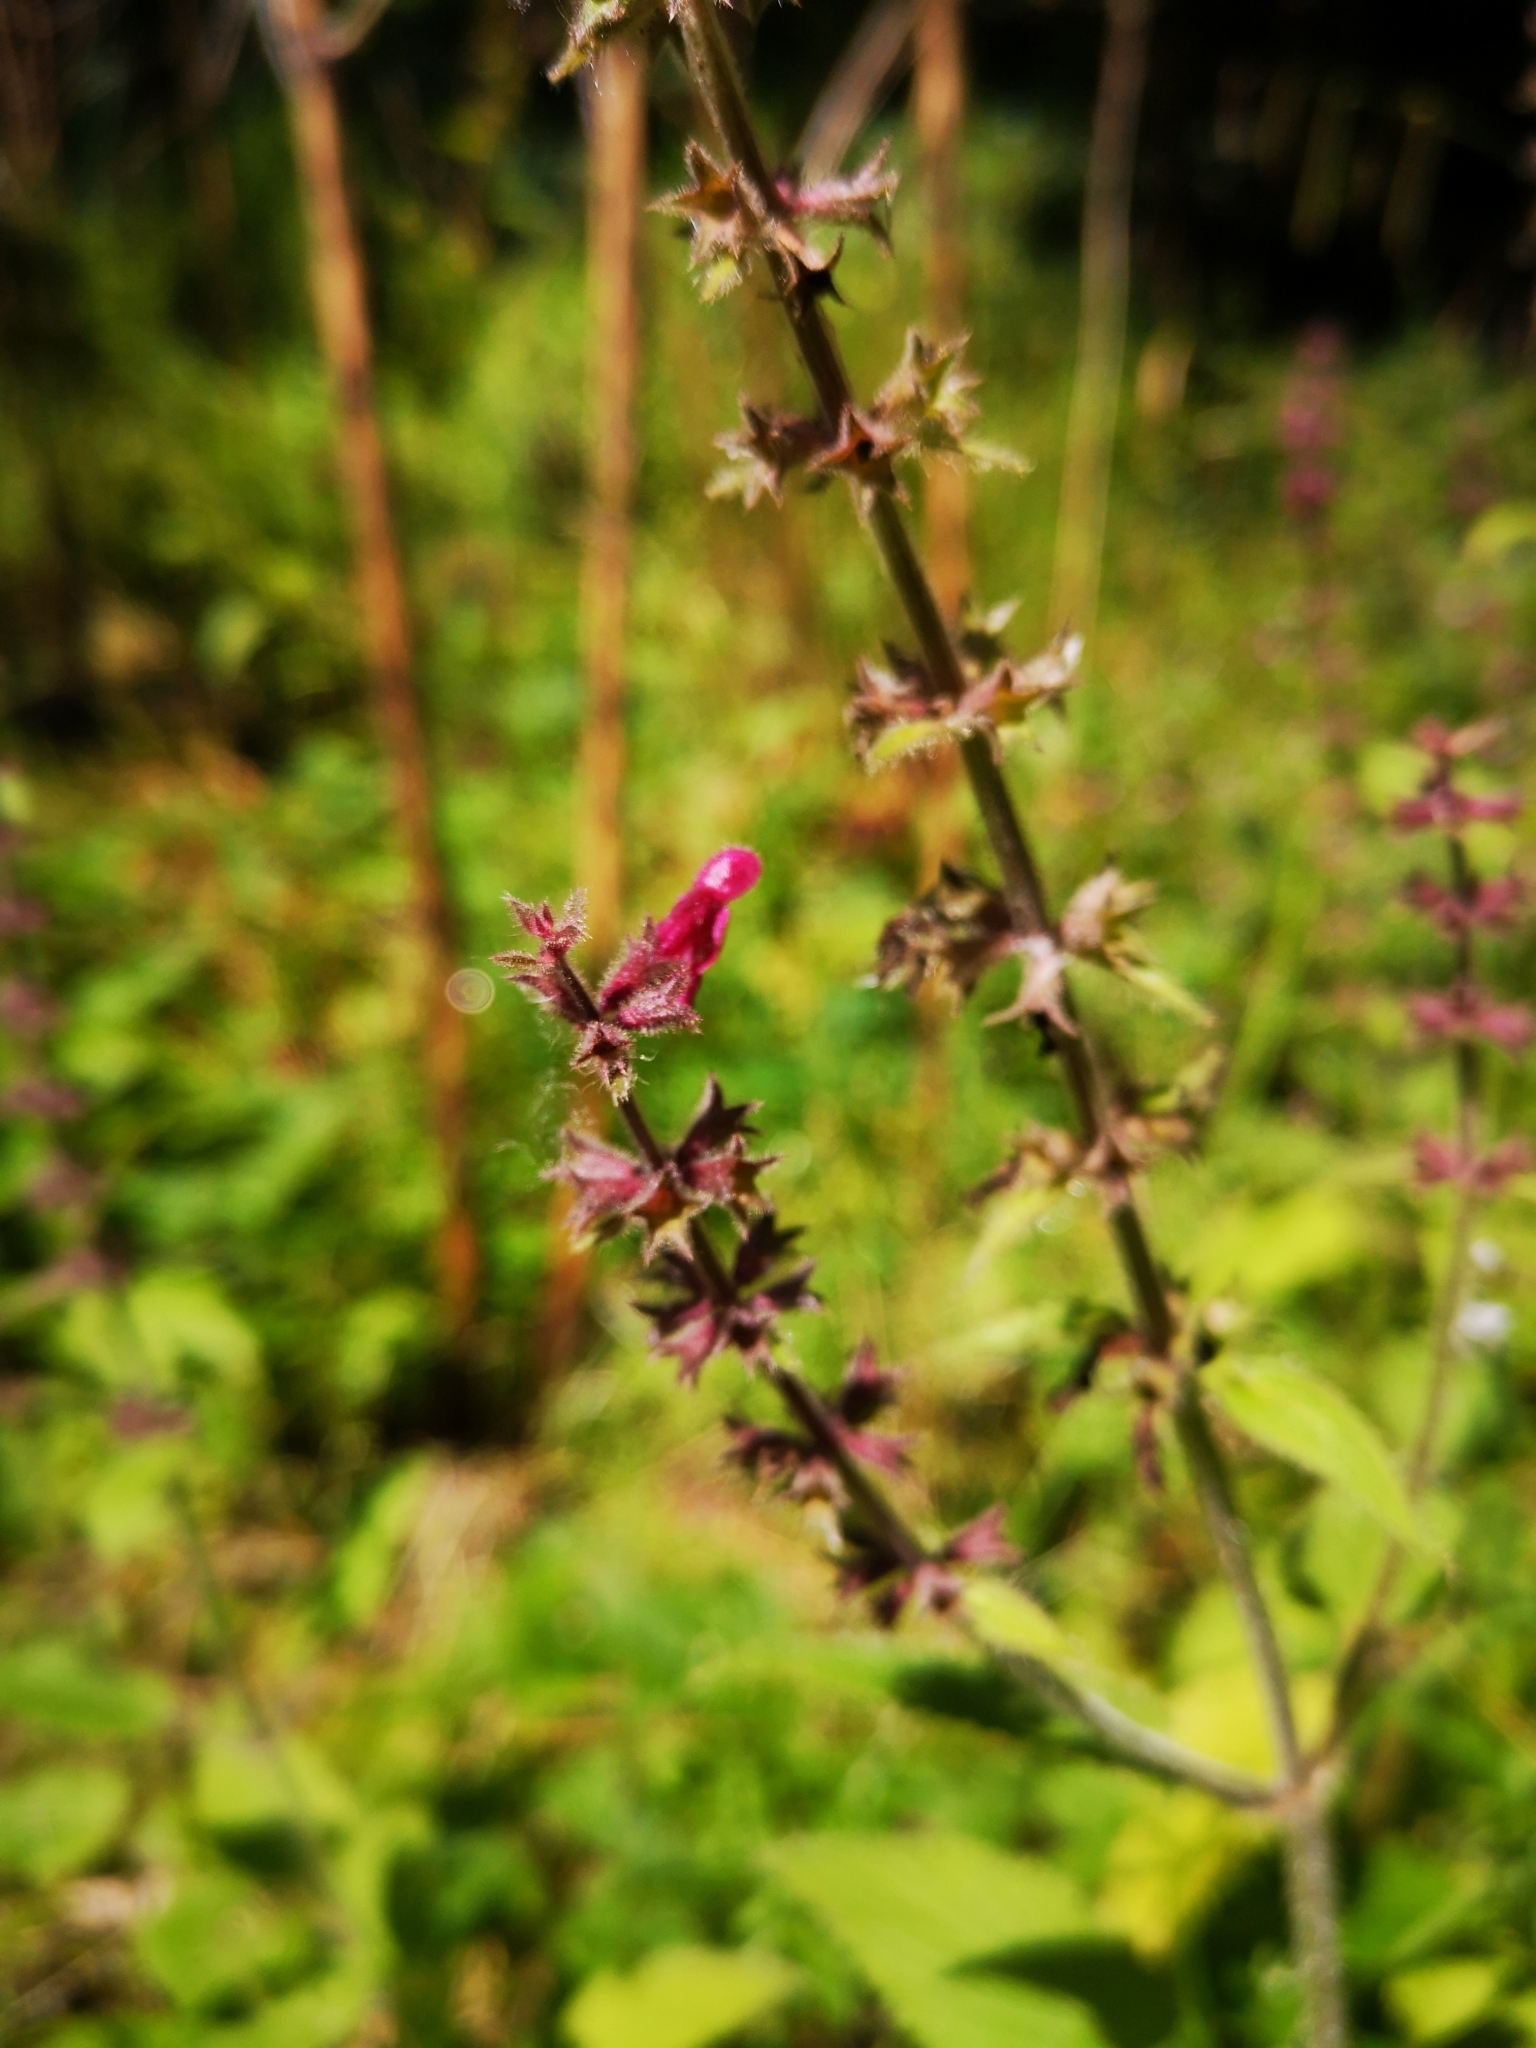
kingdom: Plantae
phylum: Tracheophyta
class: Magnoliopsida
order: Lamiales
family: Lamiaceae
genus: Stachys
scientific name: Stachys sylvatica
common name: Hedge woundwort
